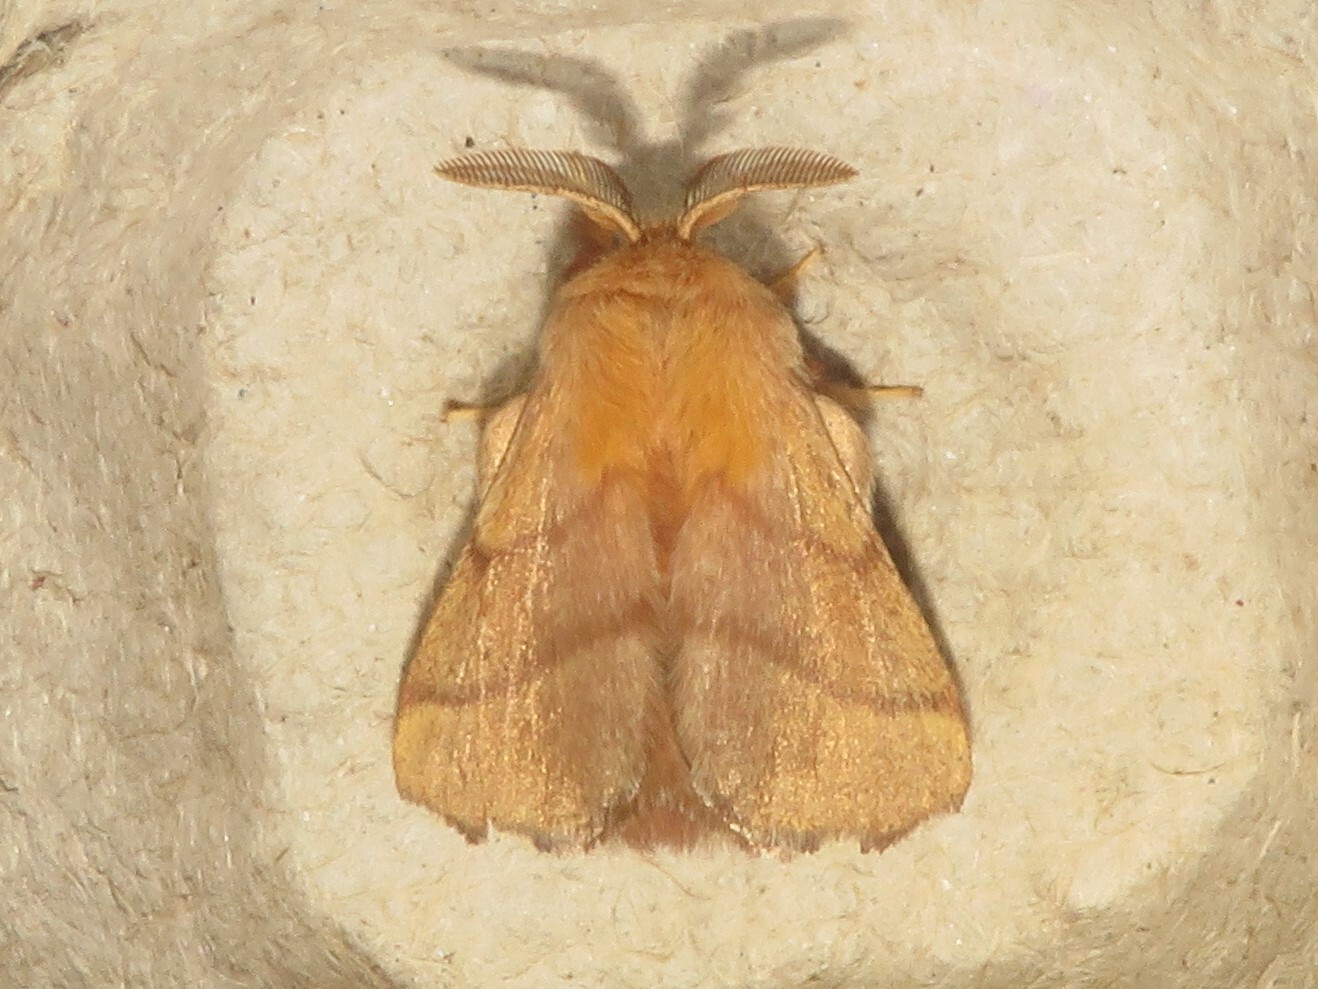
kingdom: Animalia
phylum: Arthropoda
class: Insecta
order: Lepidoptera
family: Lasiocampidae
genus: Malacosoma
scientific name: Malacosoma disstria
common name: Forest tent caterpillar
